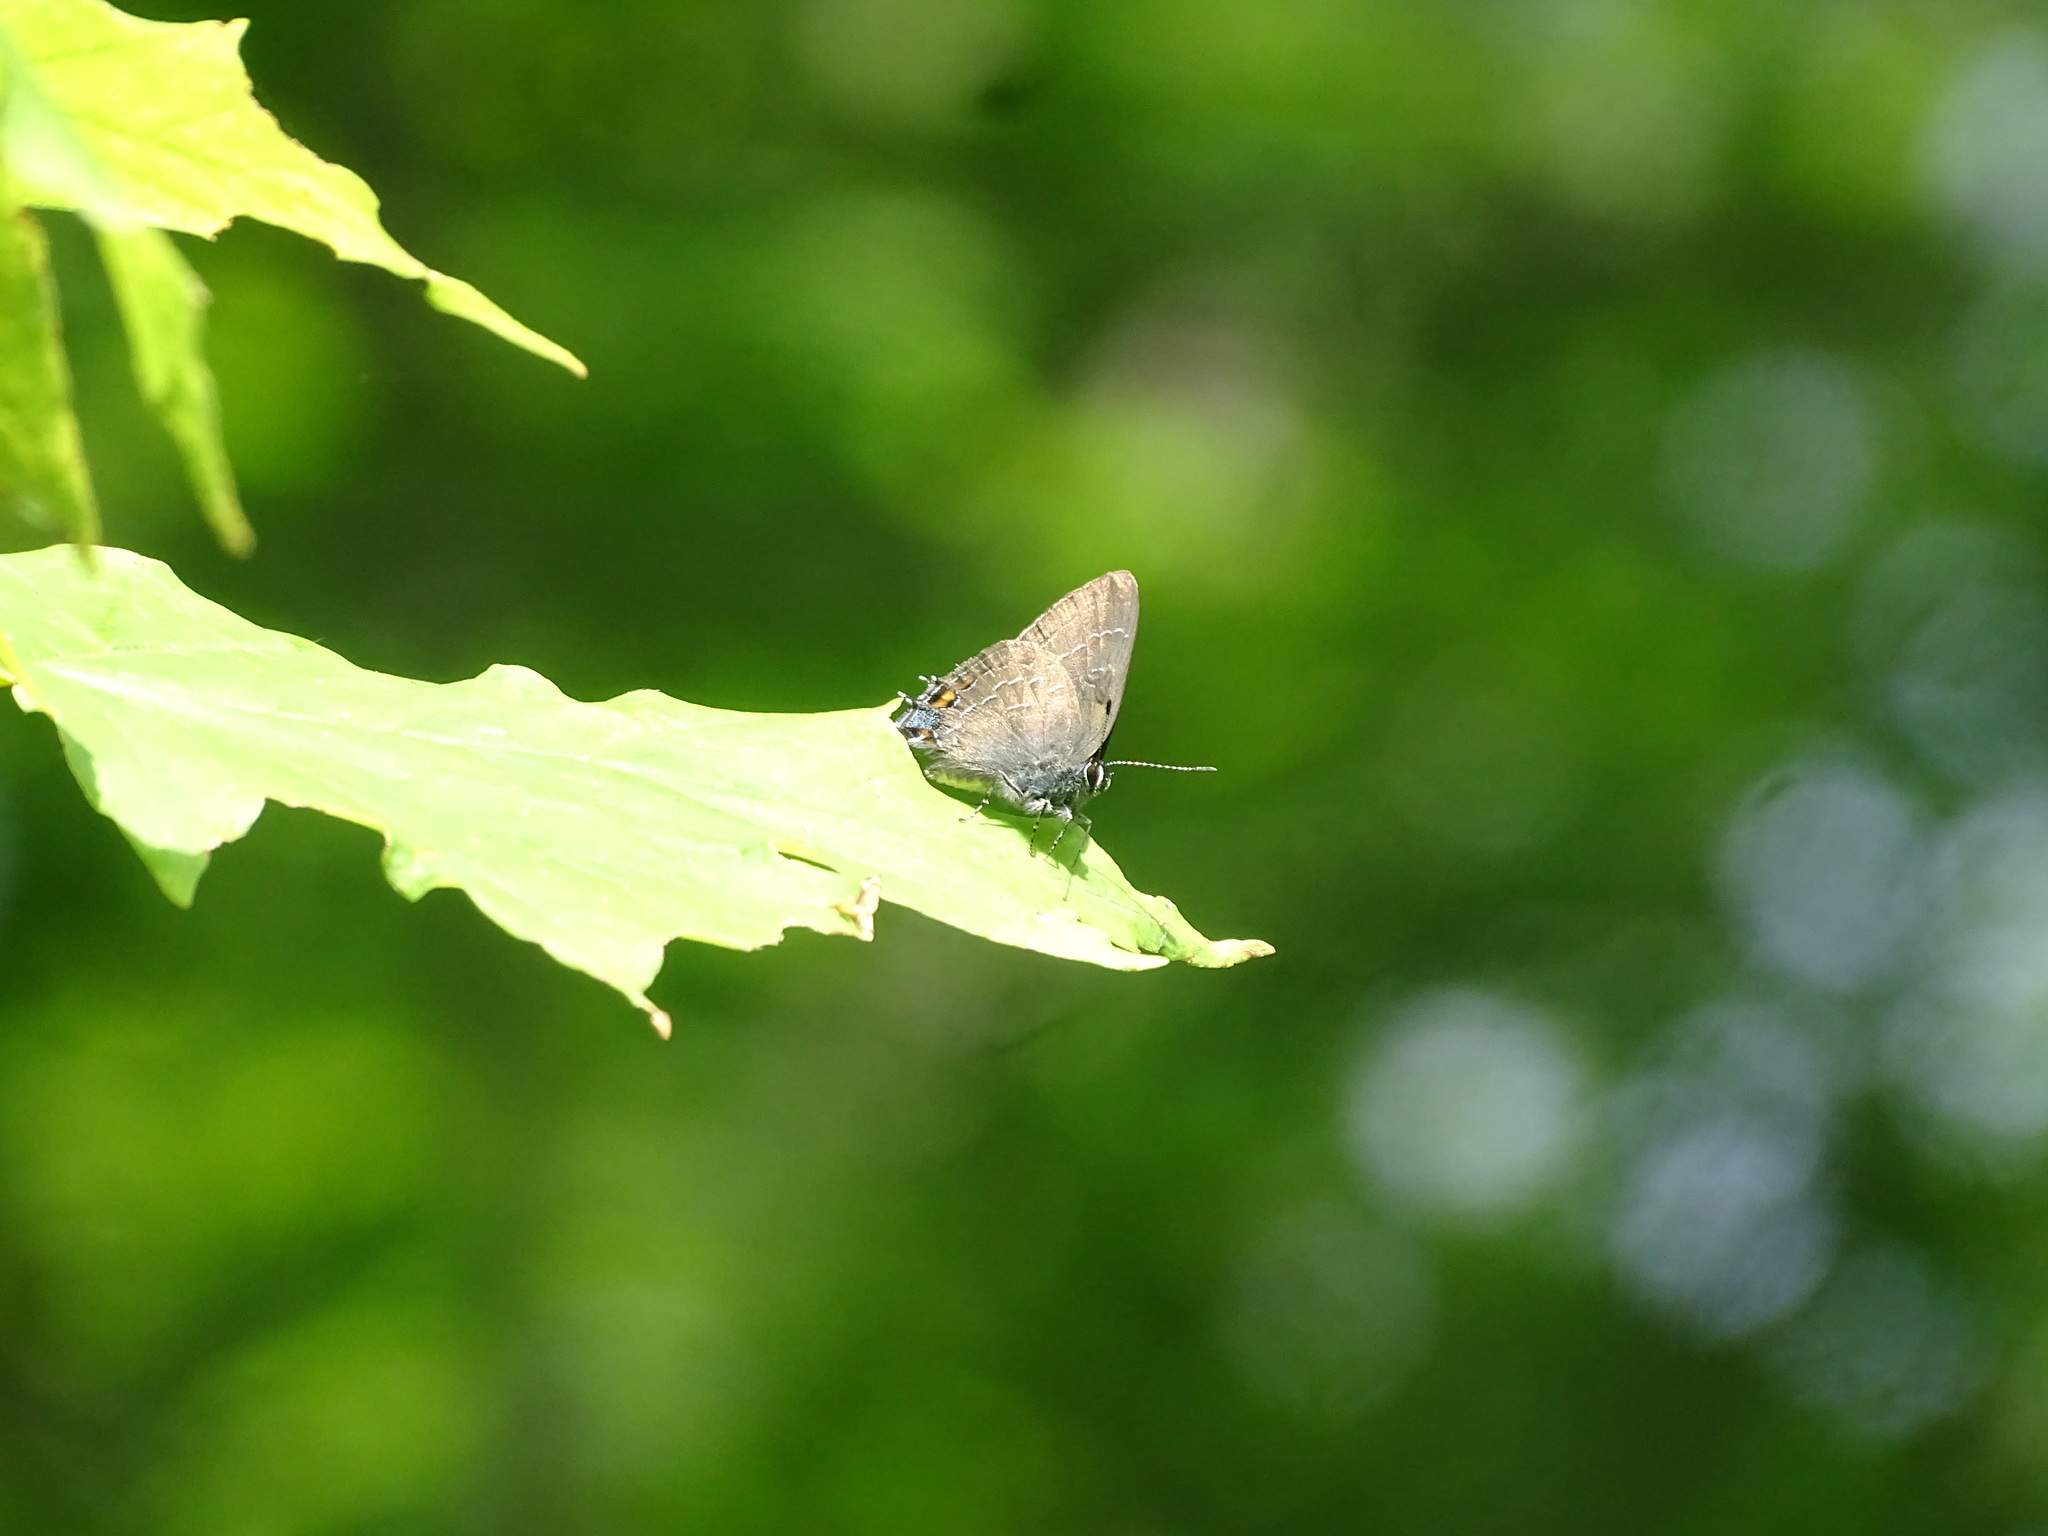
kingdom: Animalia
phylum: Arthropoda
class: Insecta
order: Lepidoptera
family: Lycaenidae
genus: Satyrium
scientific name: Satyrium calanus
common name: Banded hairstreak
